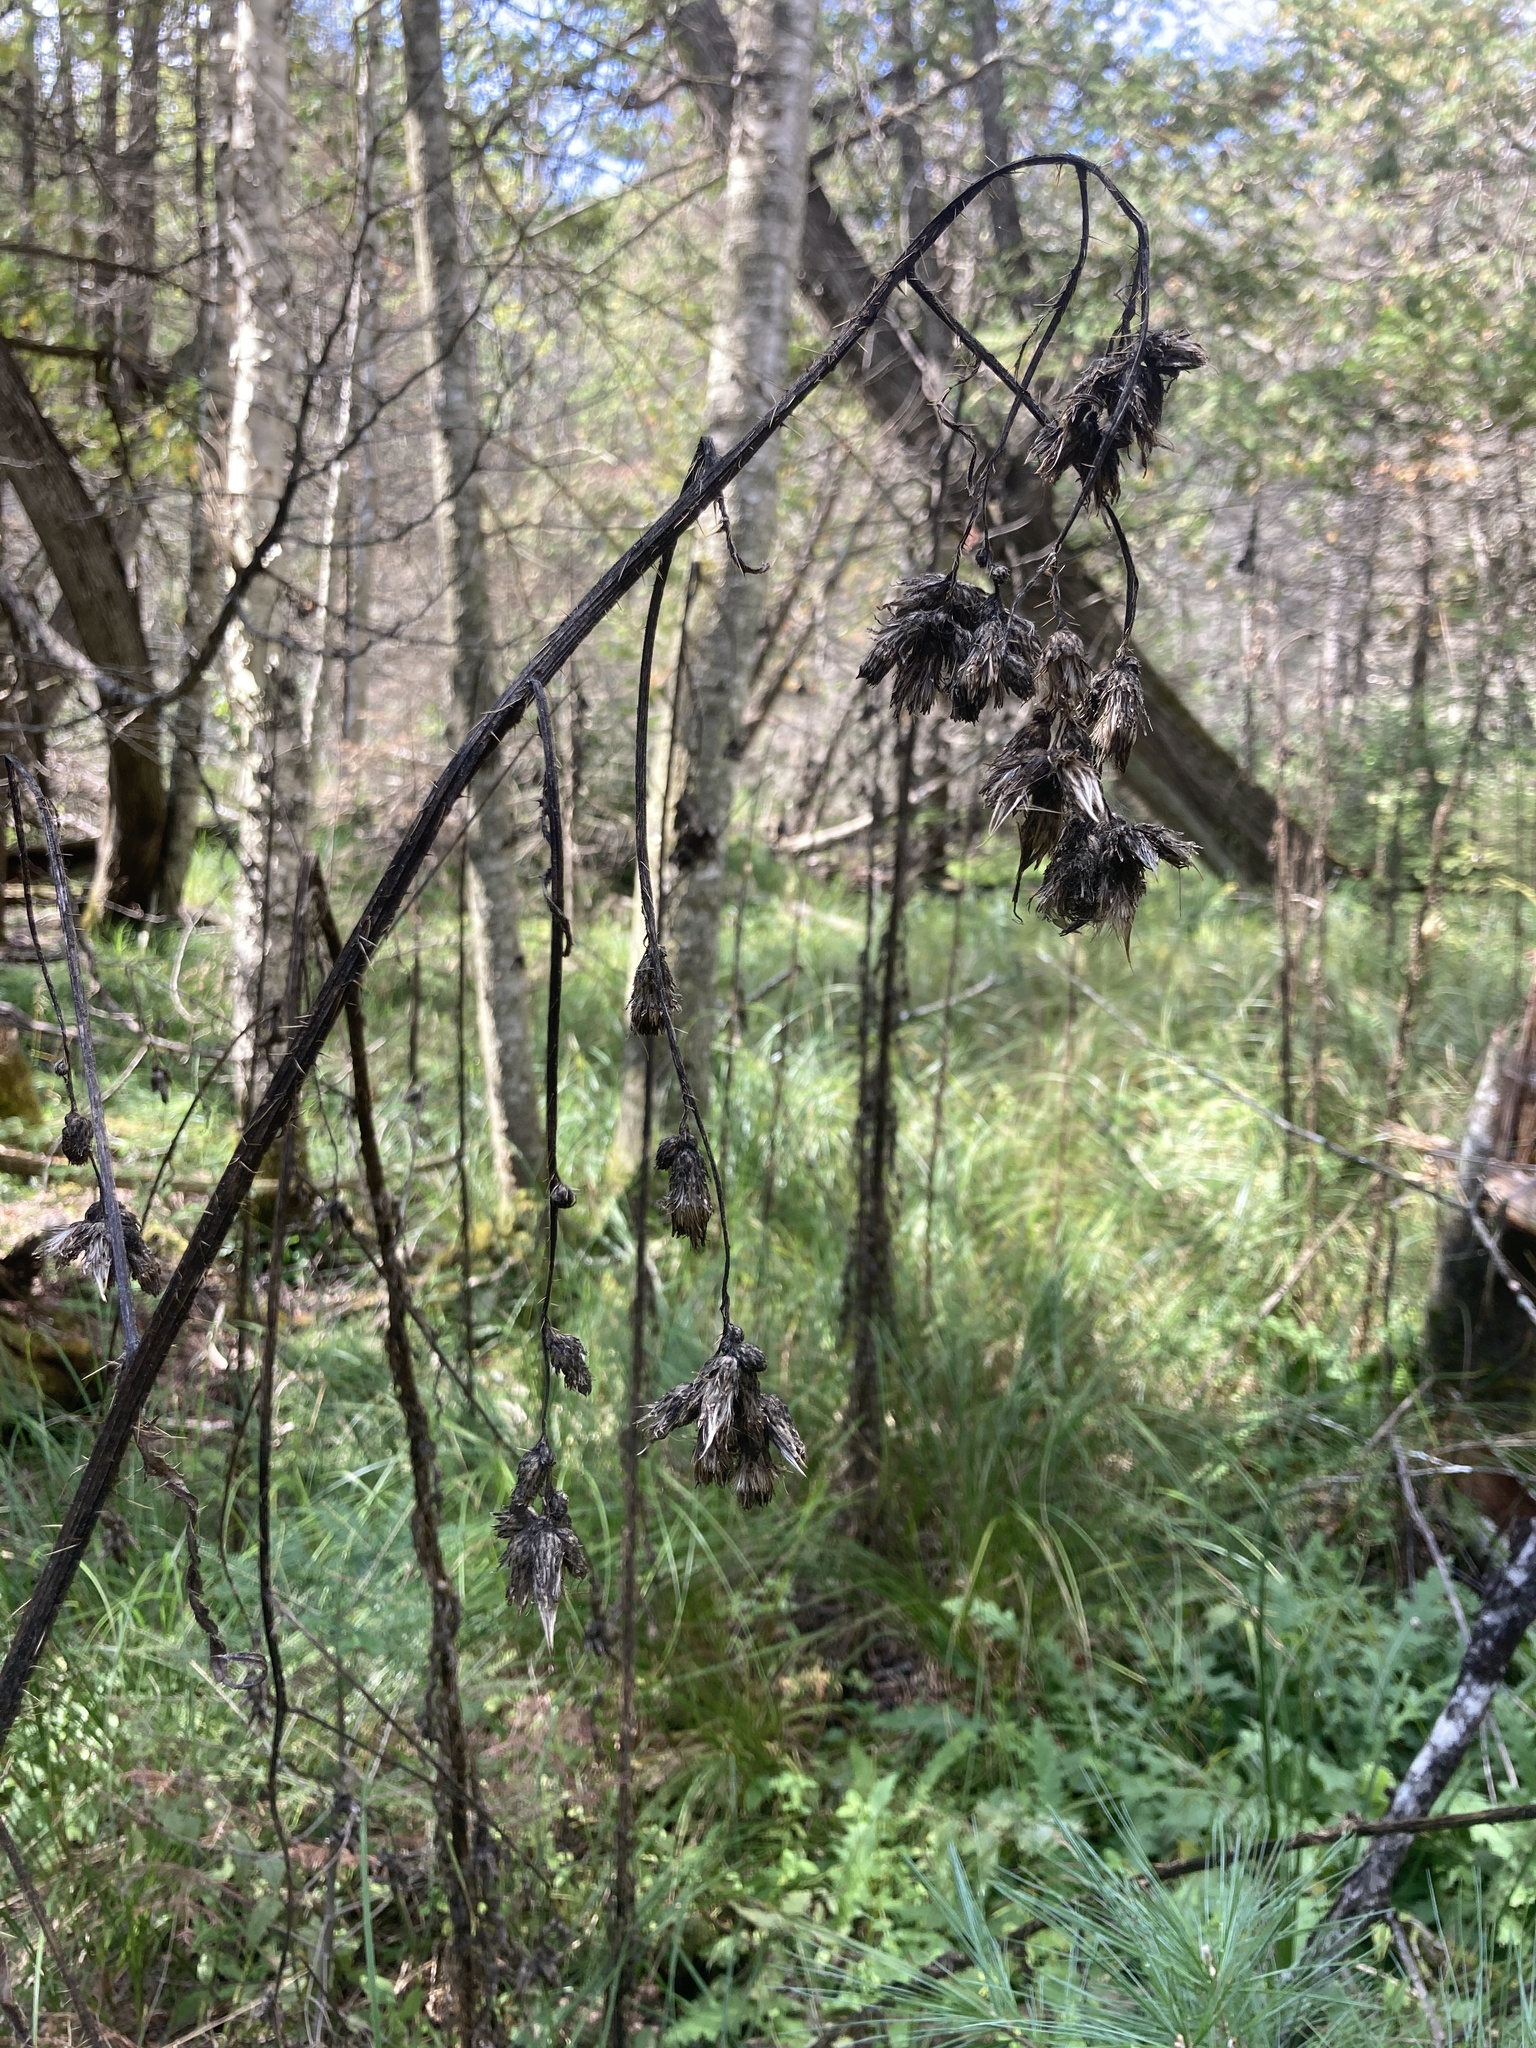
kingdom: Plantae
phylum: Tracheophyta
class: Magnoliopsida
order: Asterales
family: Asteraceae
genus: Cirsium
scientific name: Cirsium palustre
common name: Marsh thistle
